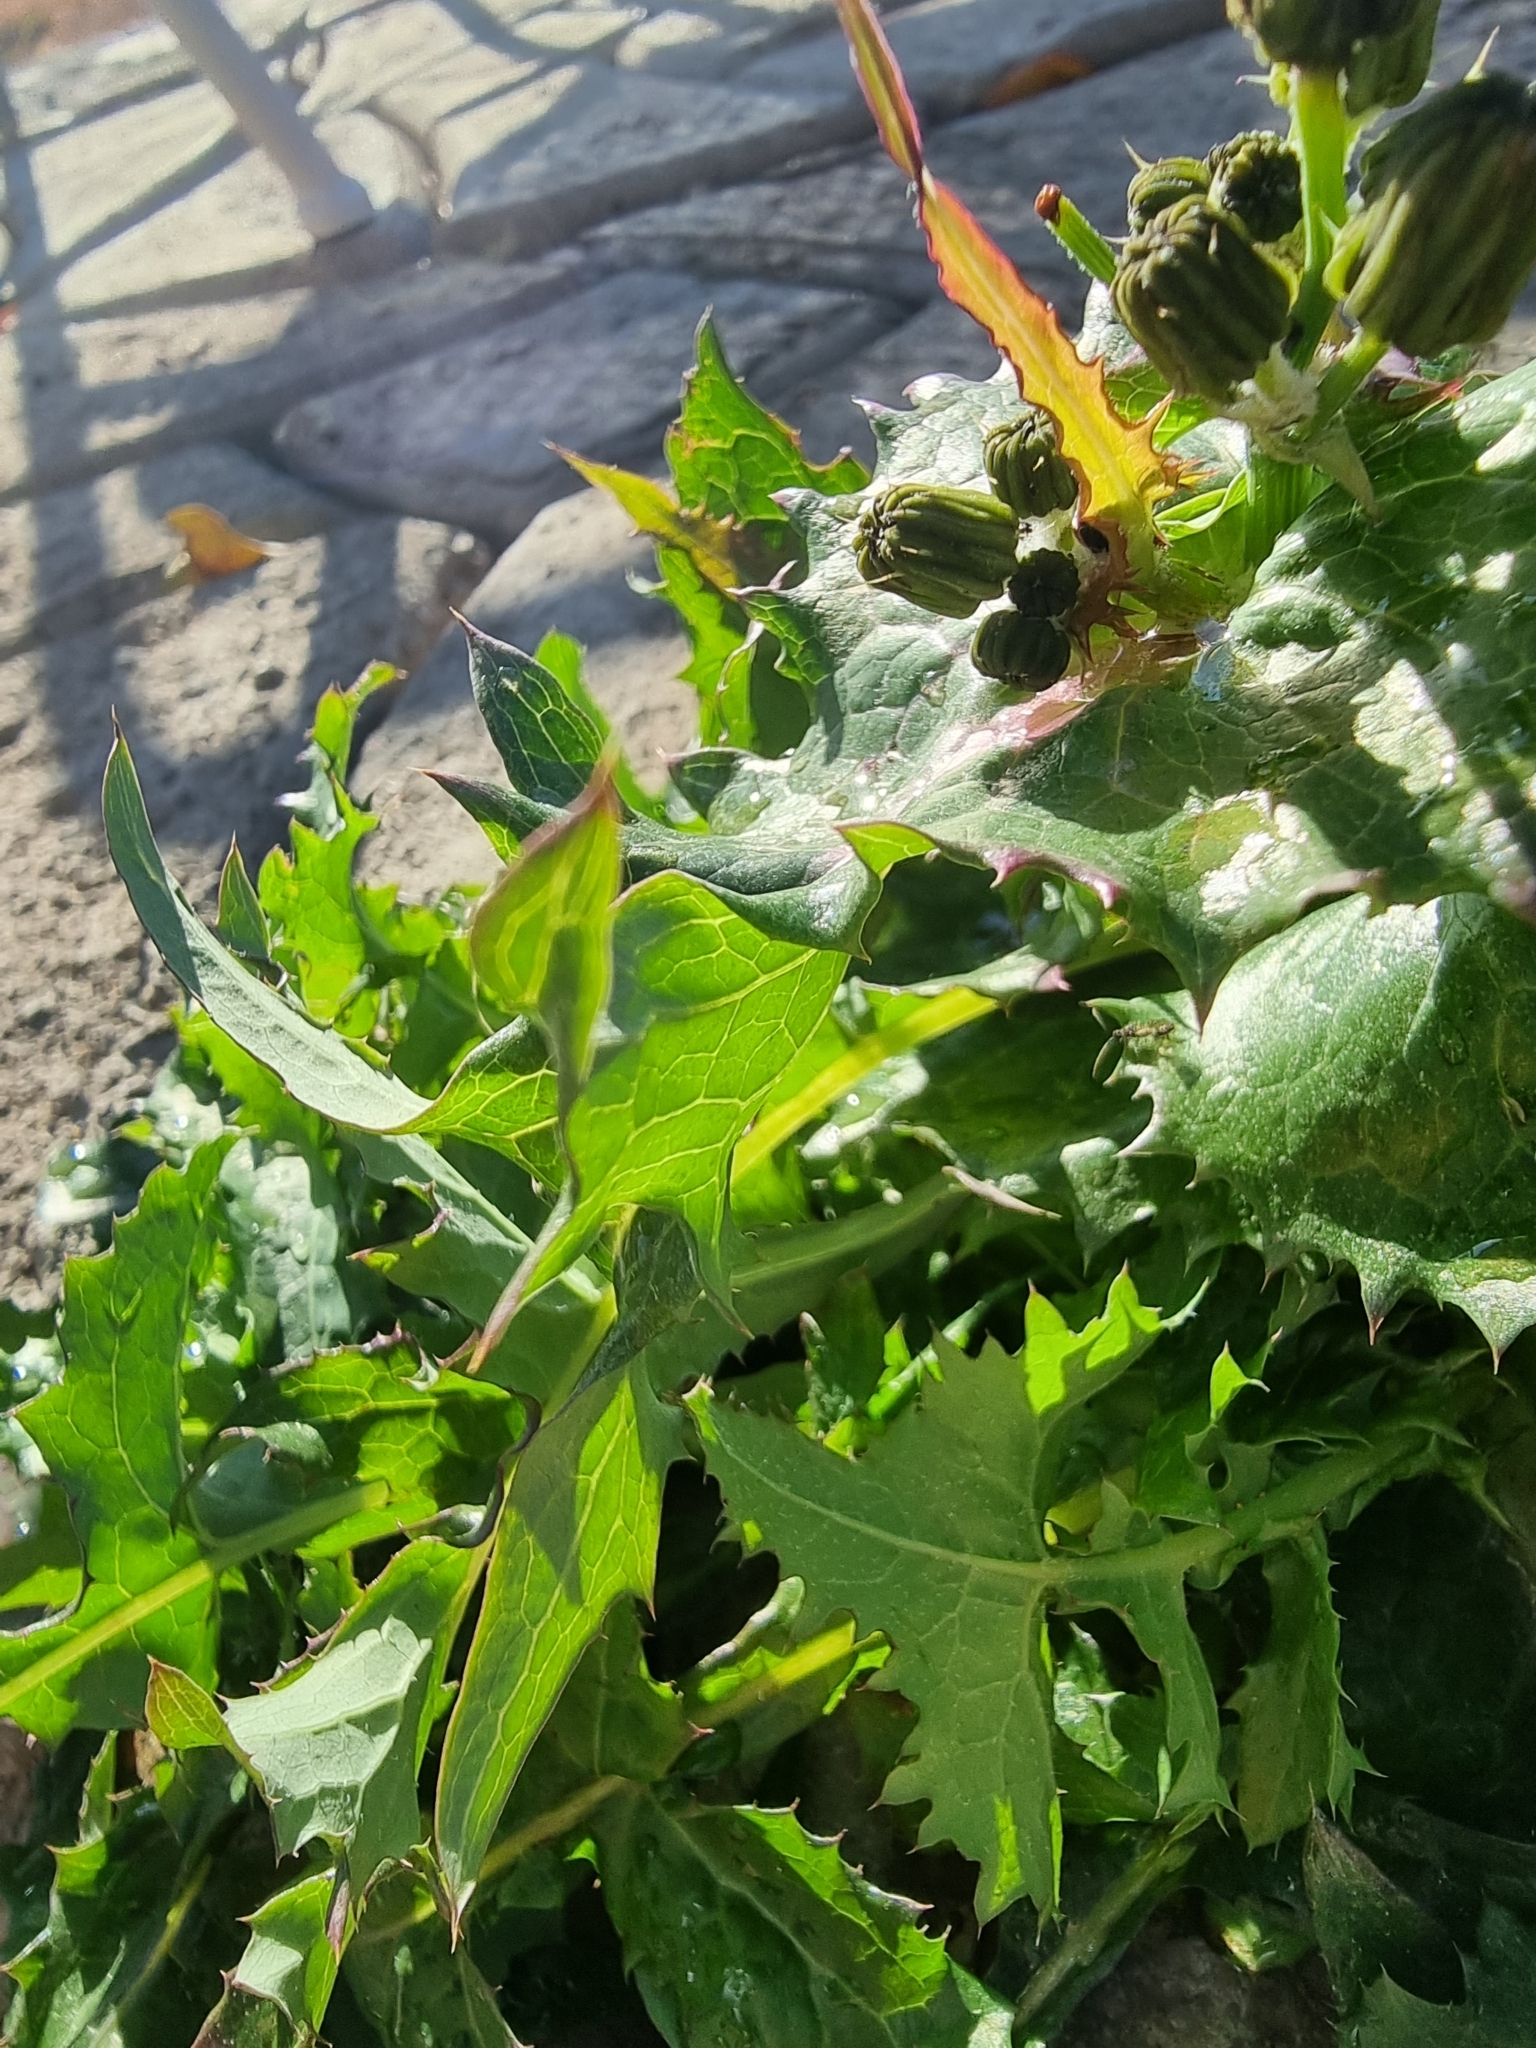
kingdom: Plantae
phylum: Tracheophyta
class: Magnoliopsida
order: Asterales
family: Asteraceae
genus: Sonchus
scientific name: Sonchus oleraceus
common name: Common sowthistle
